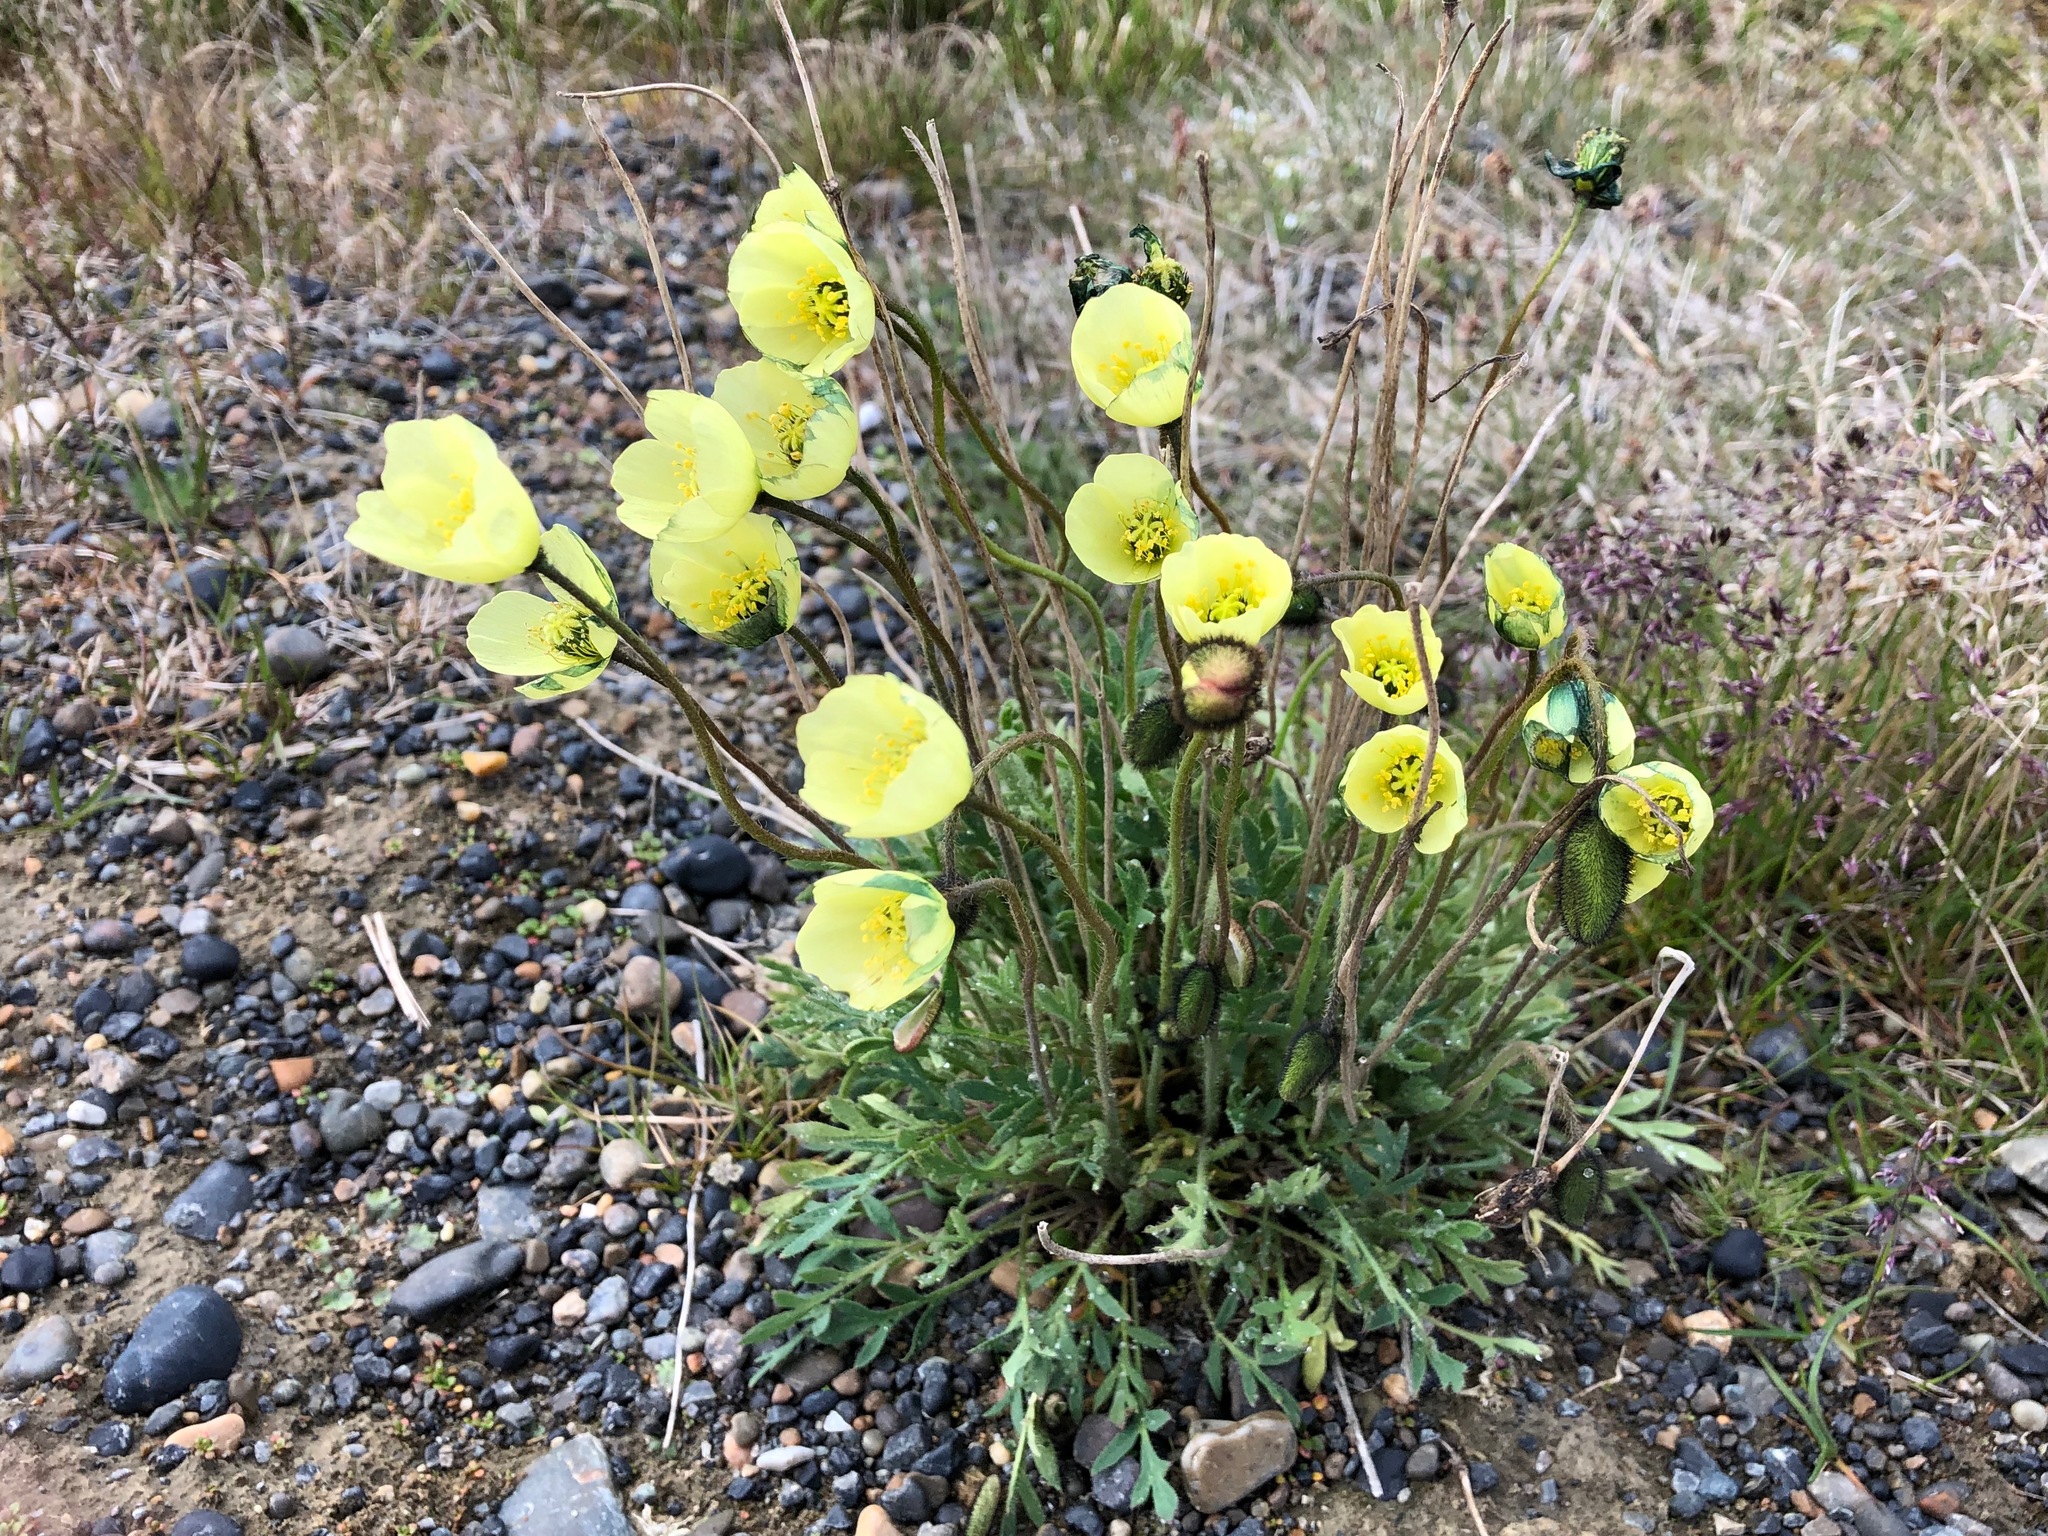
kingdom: Plantae
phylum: Tracheophyta
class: Magnoliopsida
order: Ranunculales
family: Papaveraceae
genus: Papaver
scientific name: Papaver radicatum
